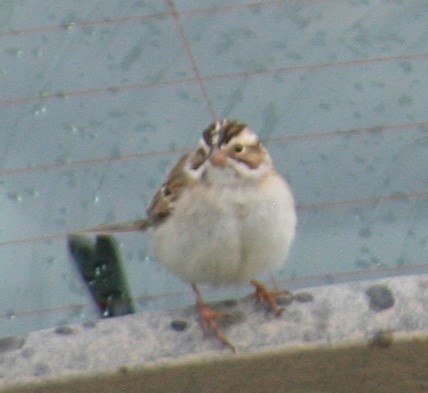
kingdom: Animalia
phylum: Chordata
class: Aves
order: Passeriformes
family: Passerellidae
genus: Spizella
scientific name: Spizella pallida
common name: Clay-colored sparrow
